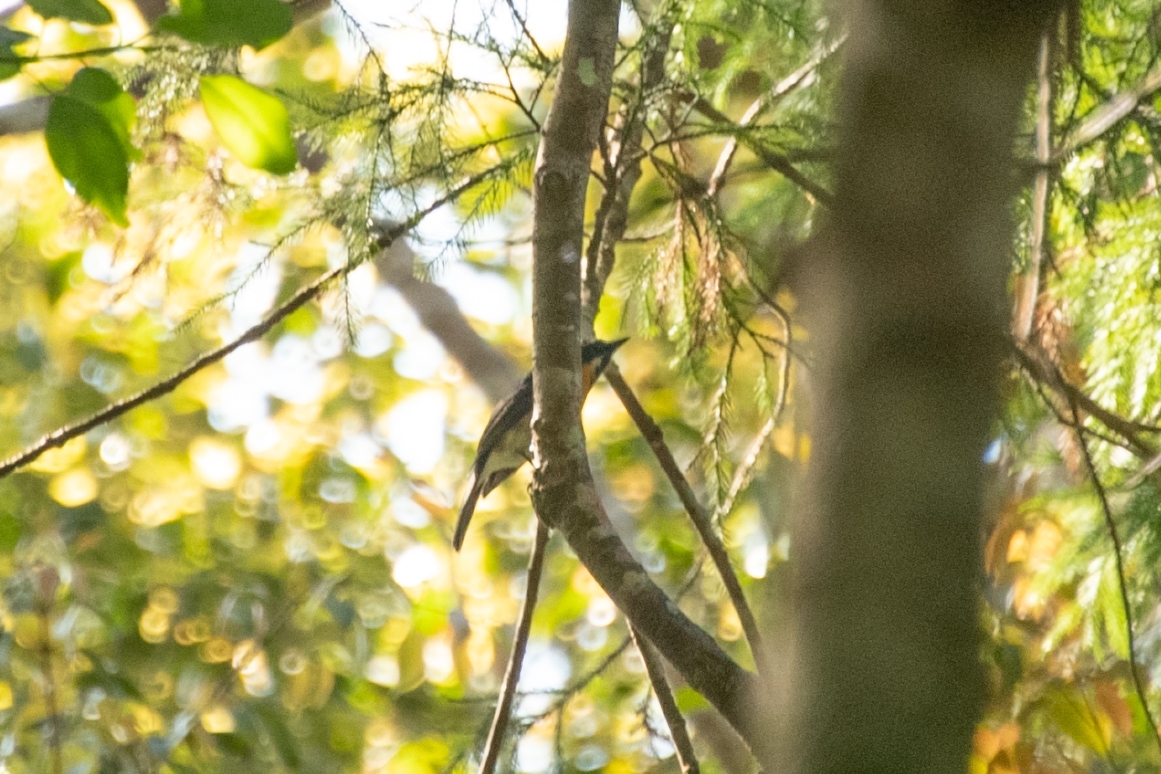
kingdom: Animalia
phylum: Chordata
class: Aves
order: Passeriformes
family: Muscicapidae
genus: Cyornis
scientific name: Cyornis tickelliae
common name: Tickell's blue flycatcher
